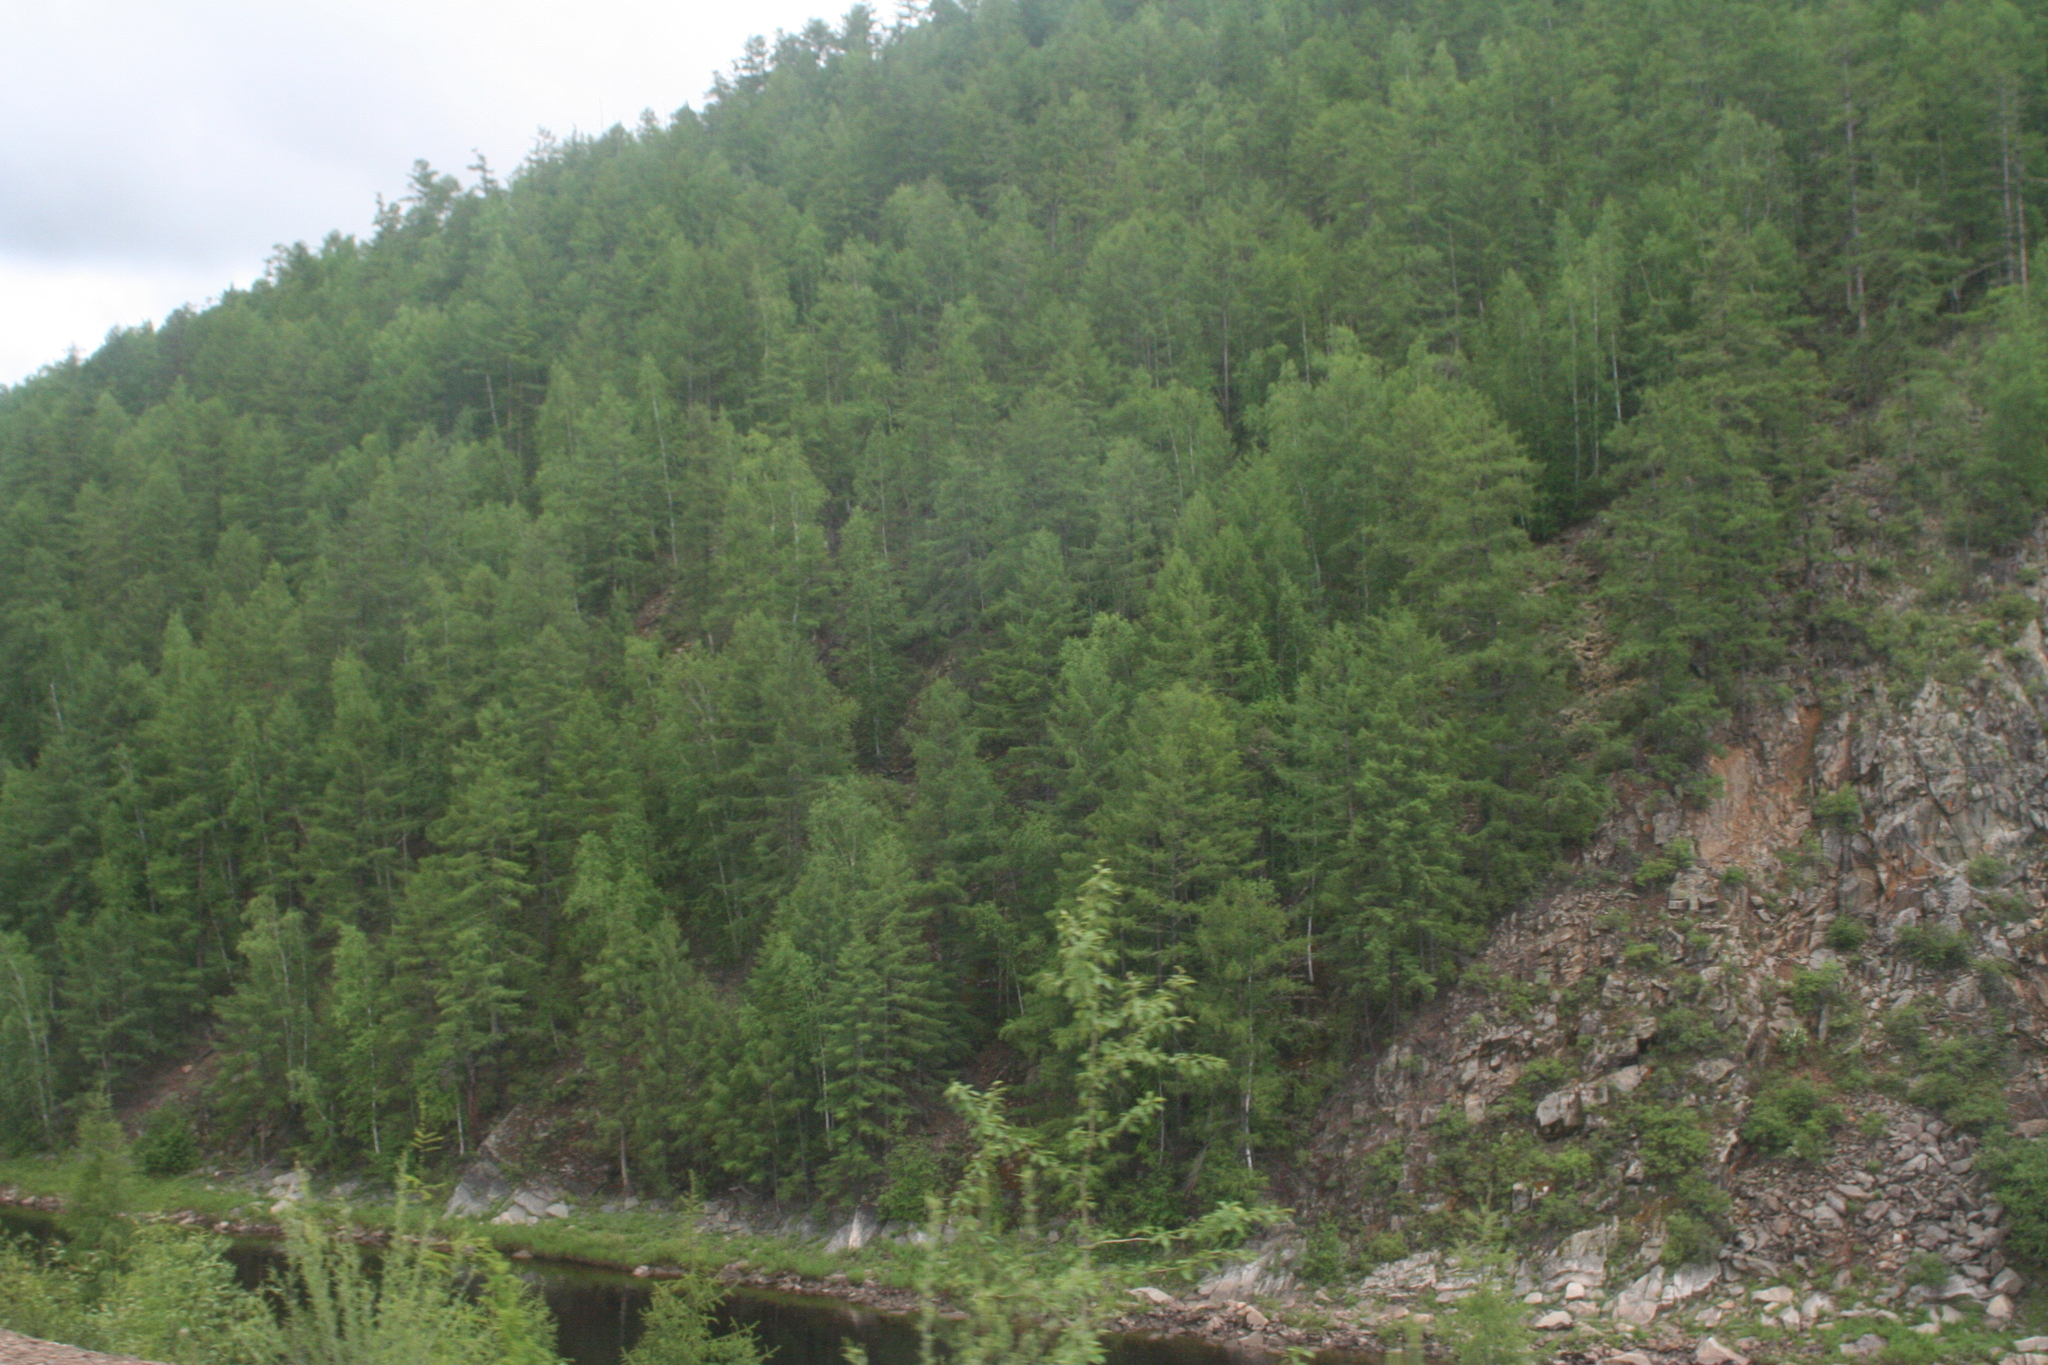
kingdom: Plantae
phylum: Tracheophyta
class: Pinopsida
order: Pinales
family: Pinaceae
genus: Larix
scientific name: Larix gmelinii
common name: Dahurian larch
